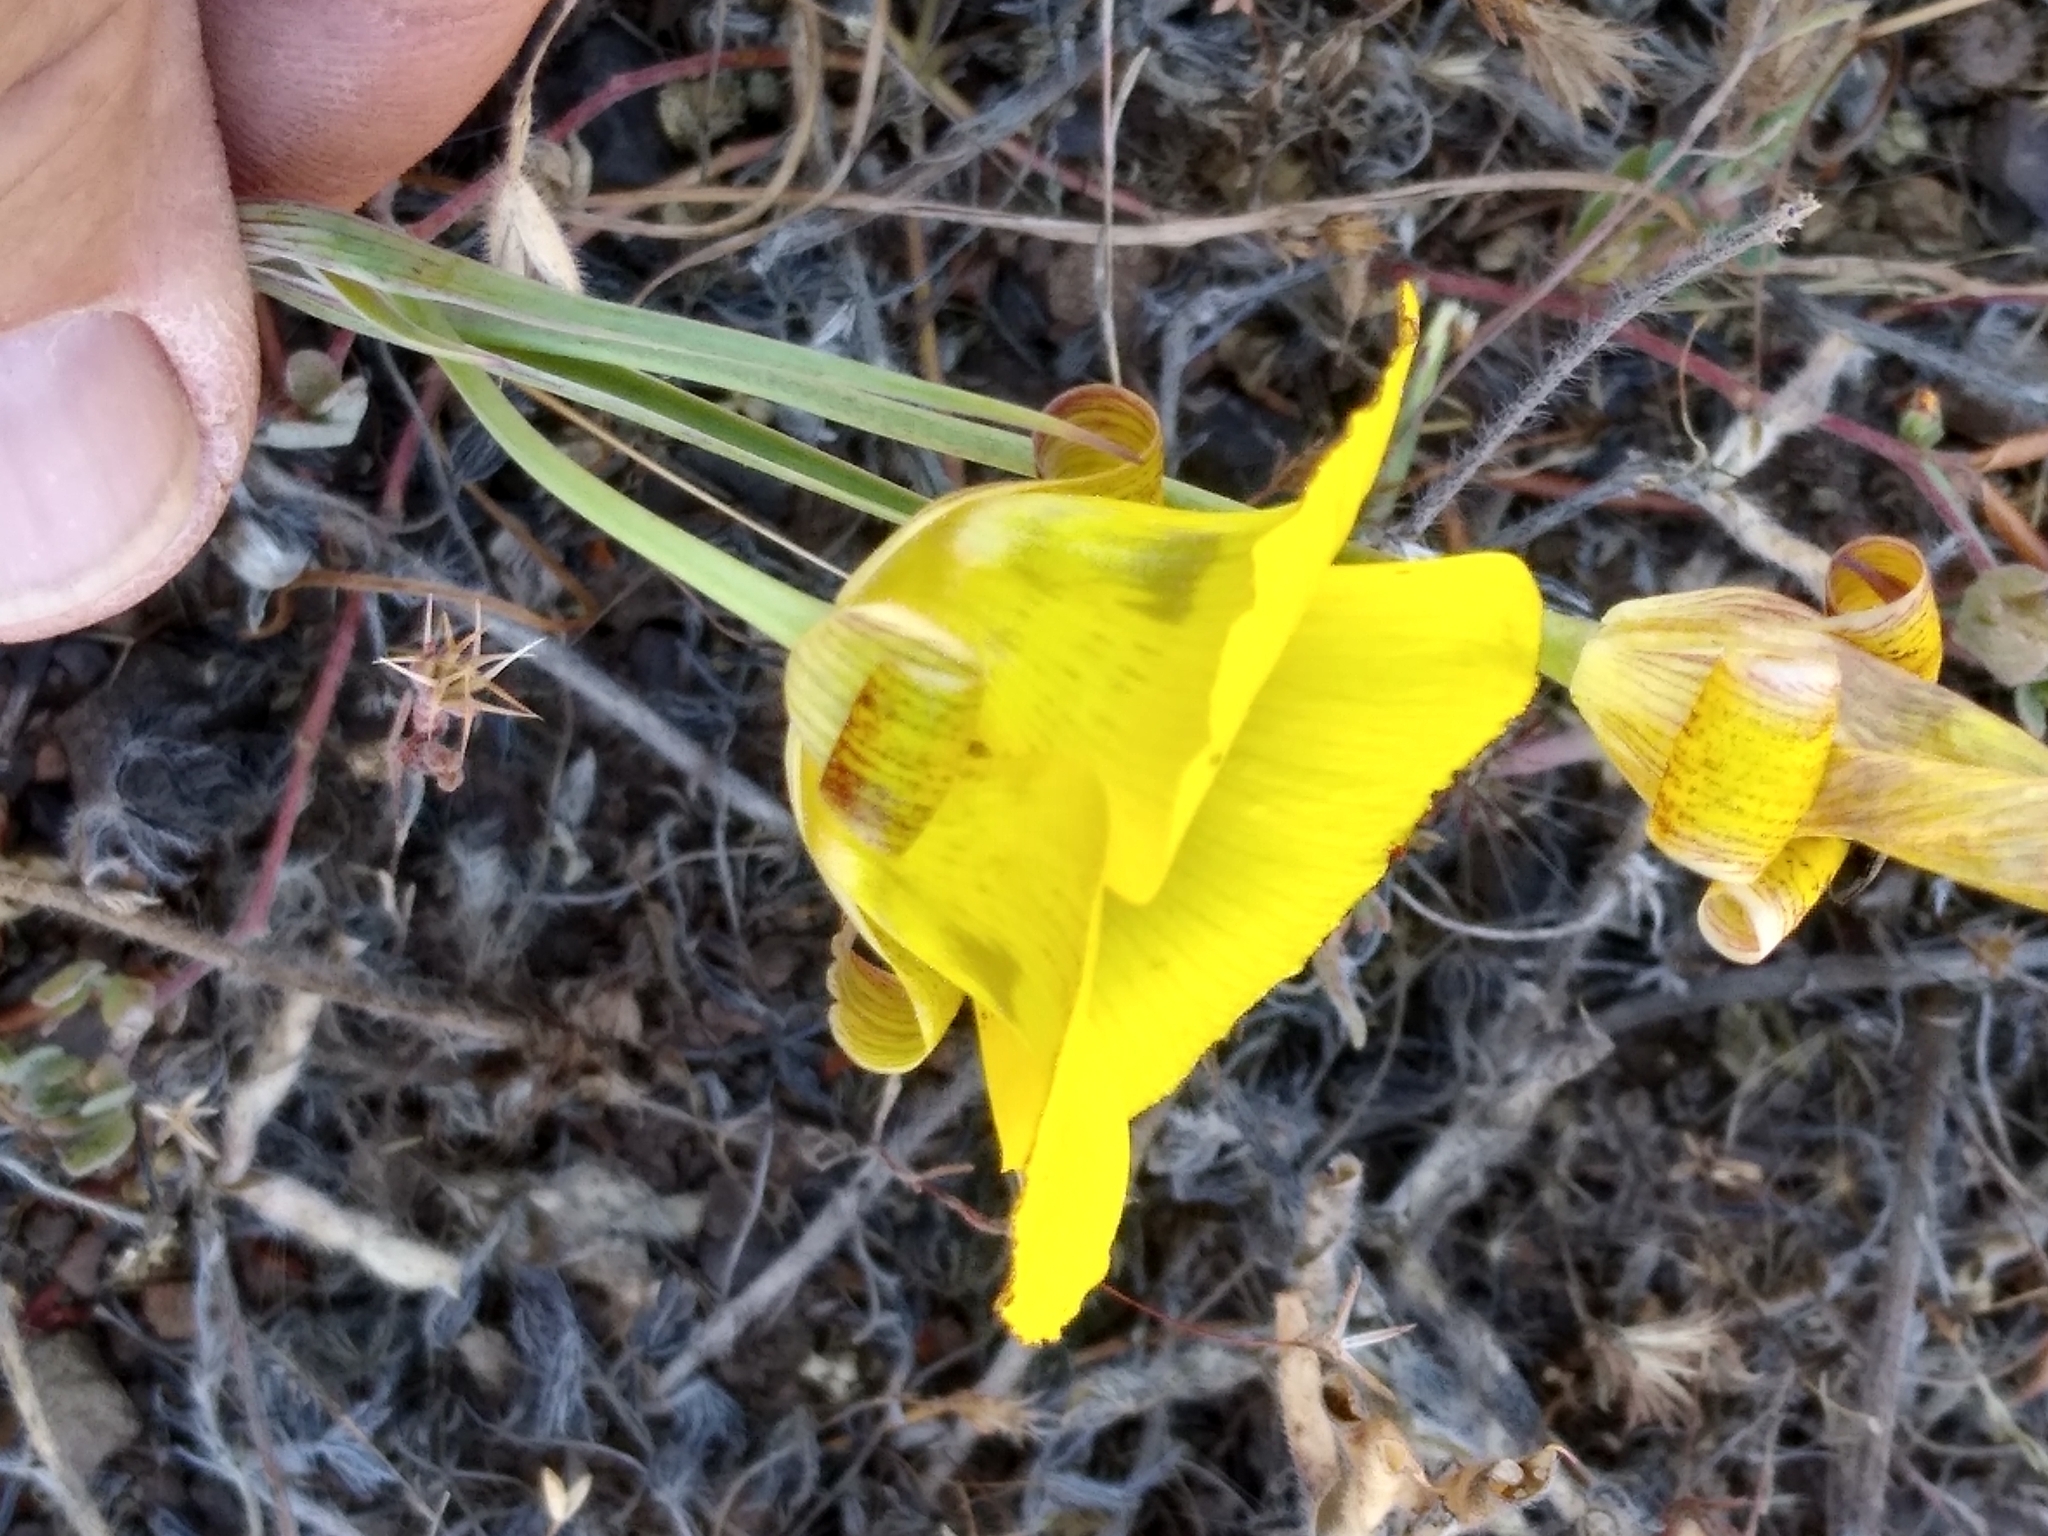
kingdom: Plantae
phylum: Tracheophyta
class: Liliopsida
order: Liliales
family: Liliaceae
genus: Calochortus
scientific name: Calochortus luteus
